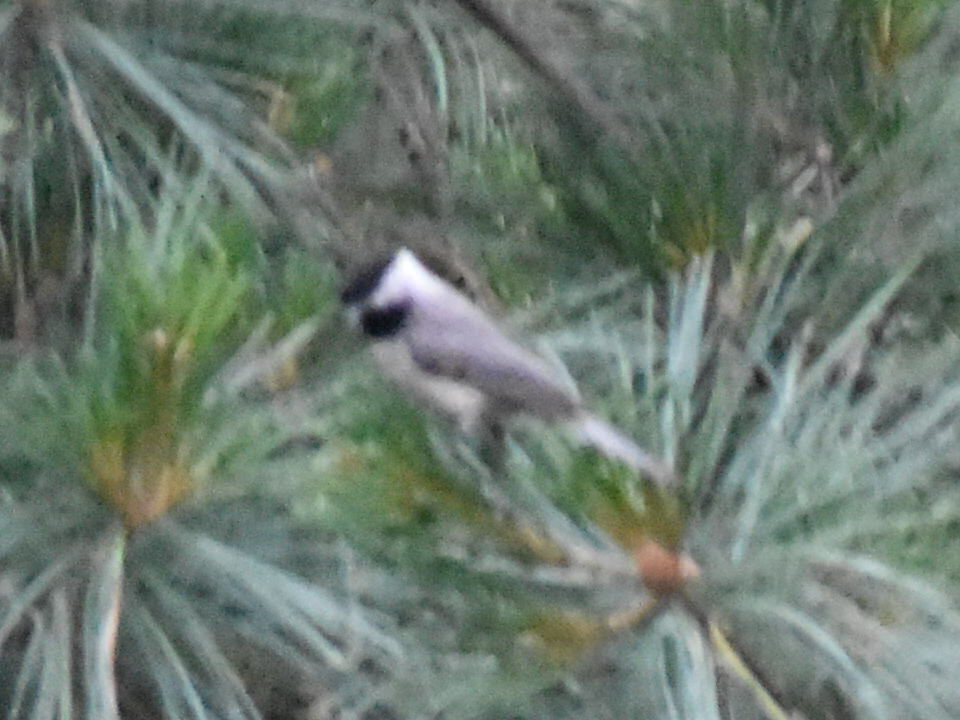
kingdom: Animalia
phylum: Chordata
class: Aves
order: Passeriformes
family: Paridae
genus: Poecile
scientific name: Poecile carolinensis
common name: Carolina chickadee
